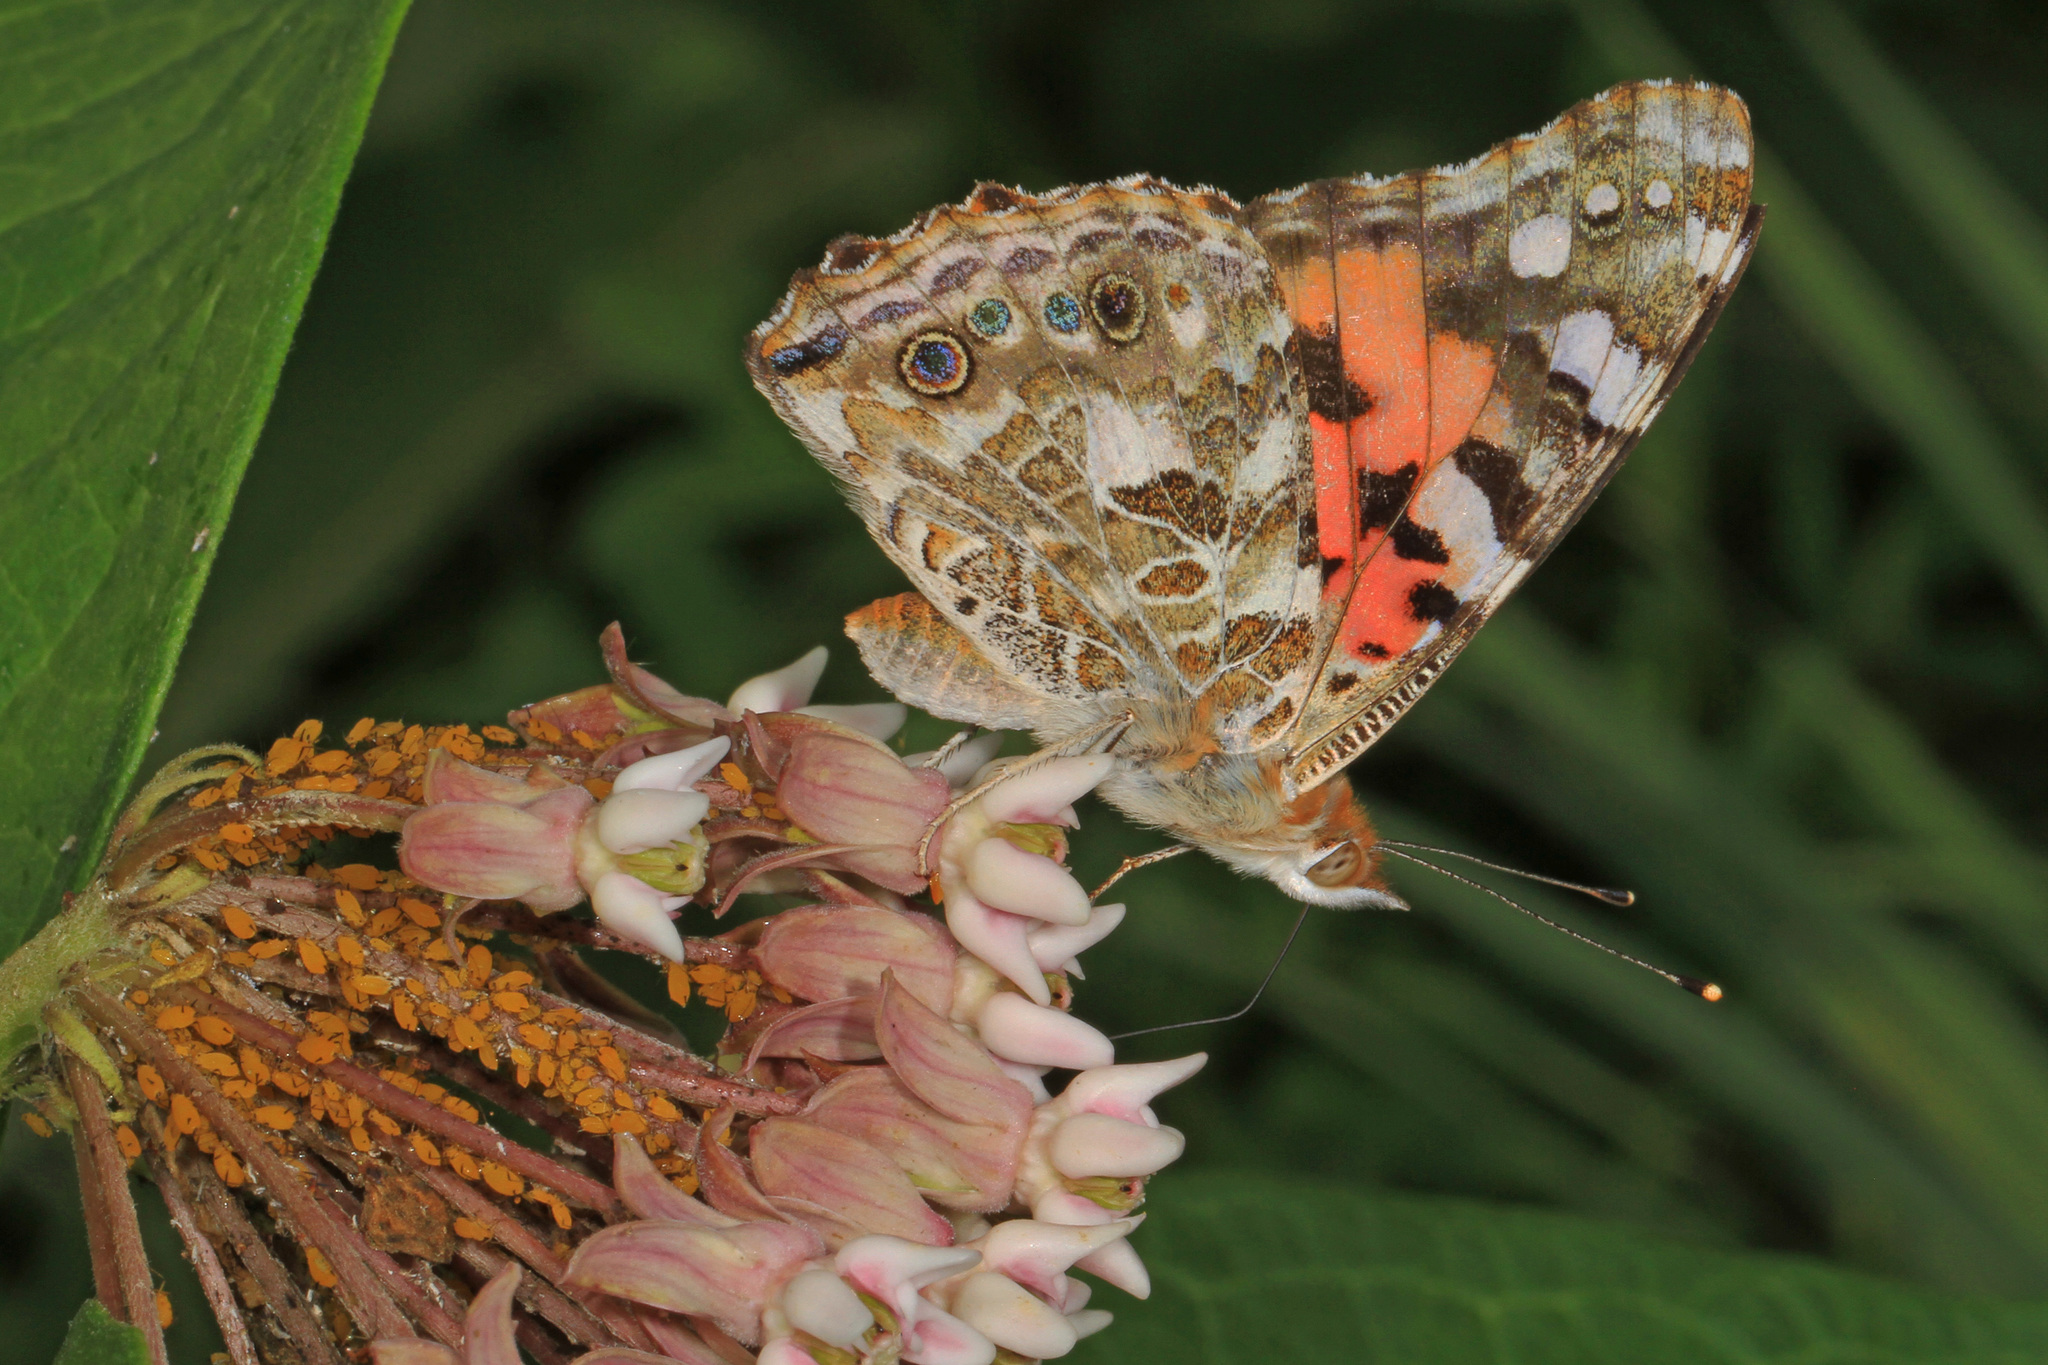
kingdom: Animalia
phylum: Arthropoda
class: Insecta
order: Lepidoptera
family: Nymphalidae
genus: Vanessa
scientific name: Vanessa cardui
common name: Painted lady
